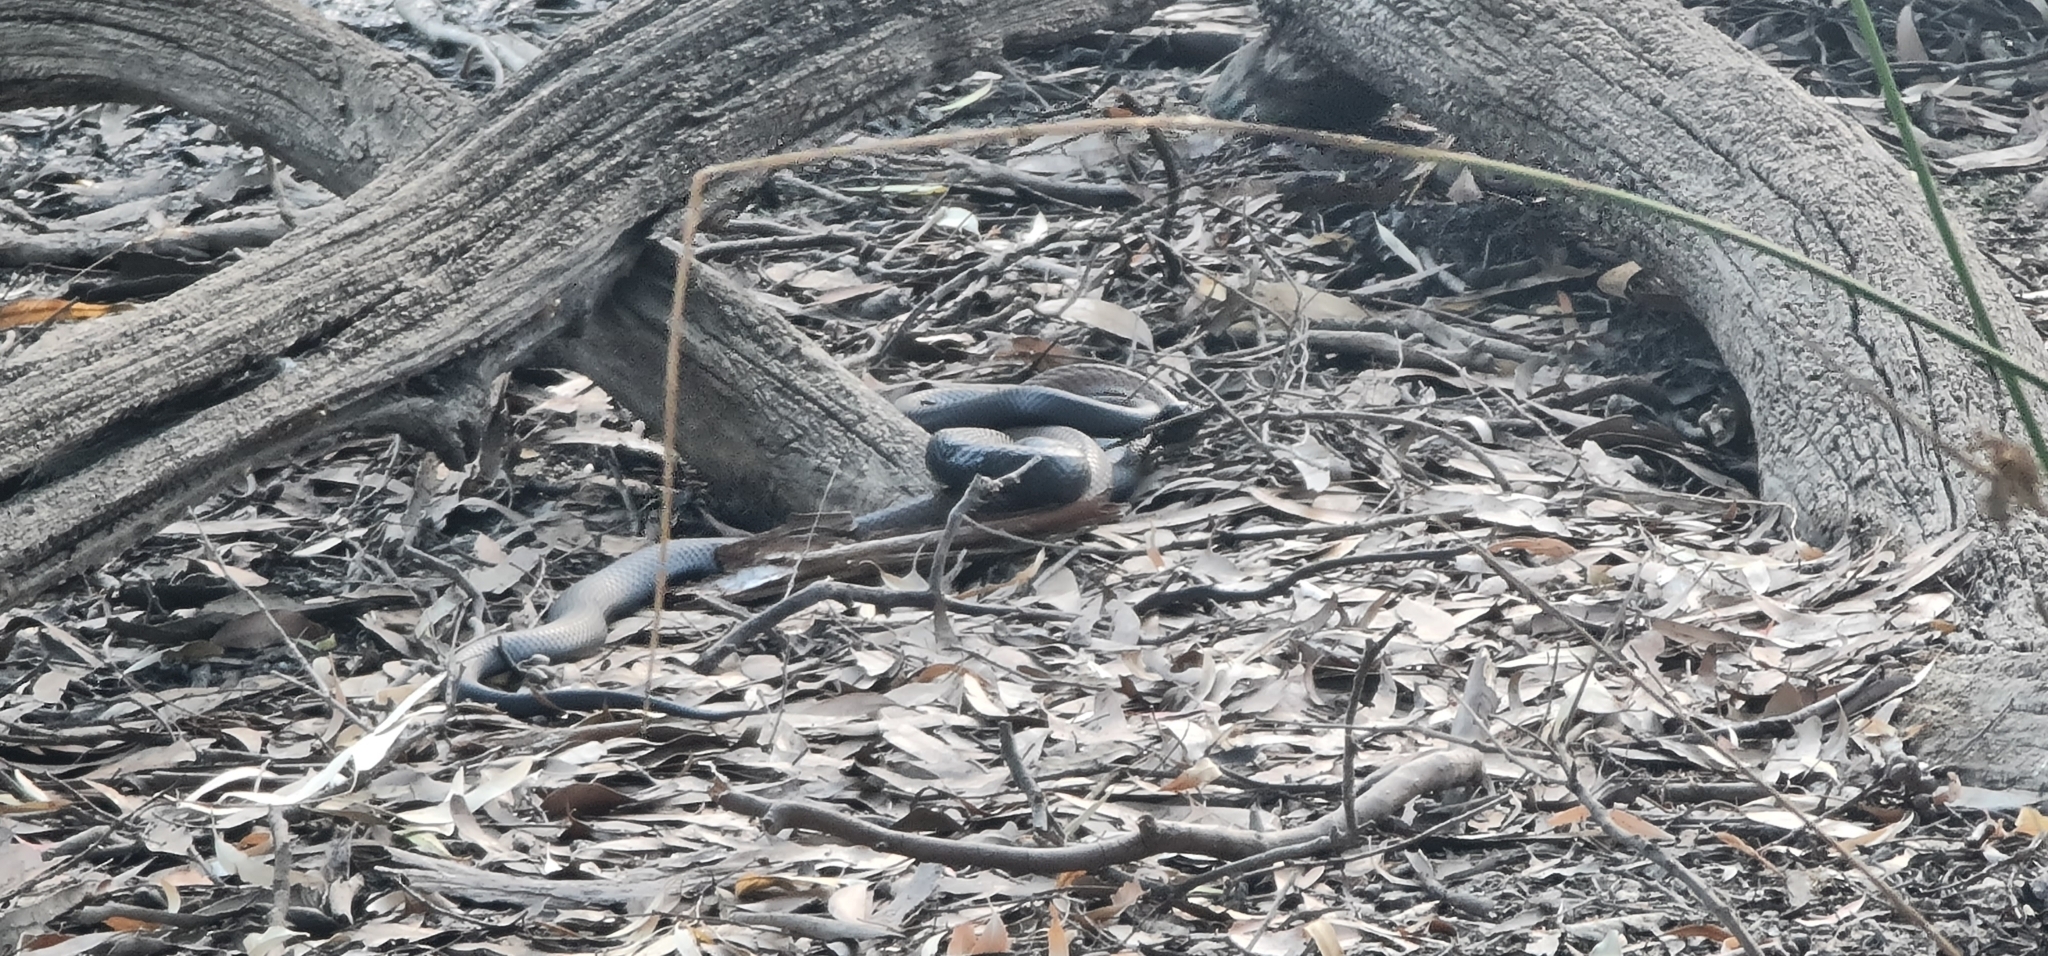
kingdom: Animalia
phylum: Chordata
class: Squamata
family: Elapidae
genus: Notechis
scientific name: Notechis scutatus
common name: Mainland tiger snake
